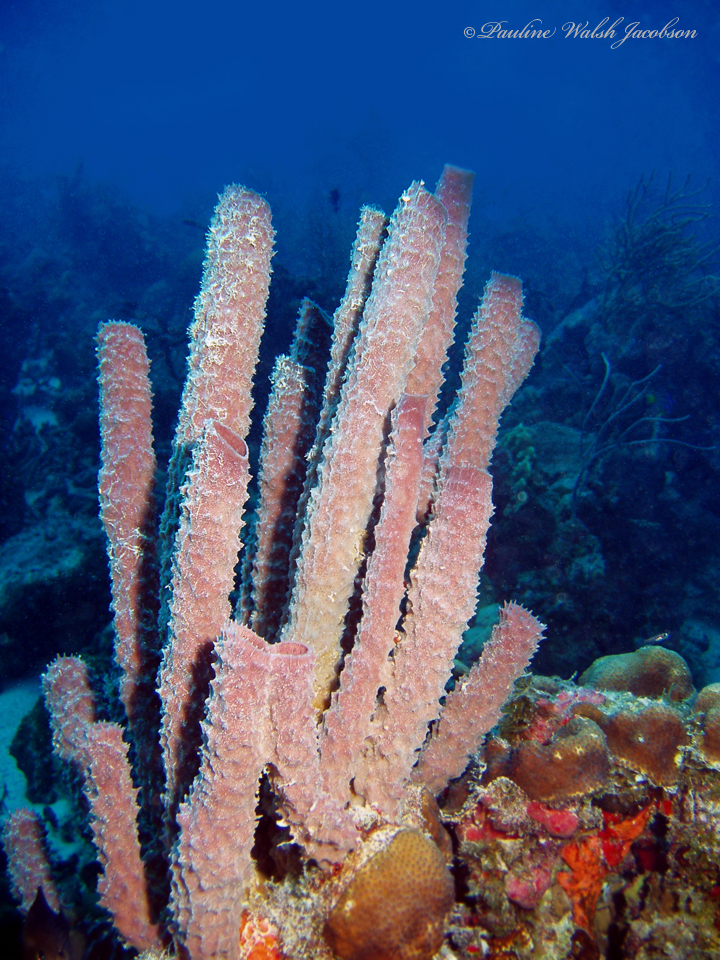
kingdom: Animalia
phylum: Porifera
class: Demospongiae
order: Haplosclerida
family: Callyspongiidae
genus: Callyspongia
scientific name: Callyspongia aculeata
